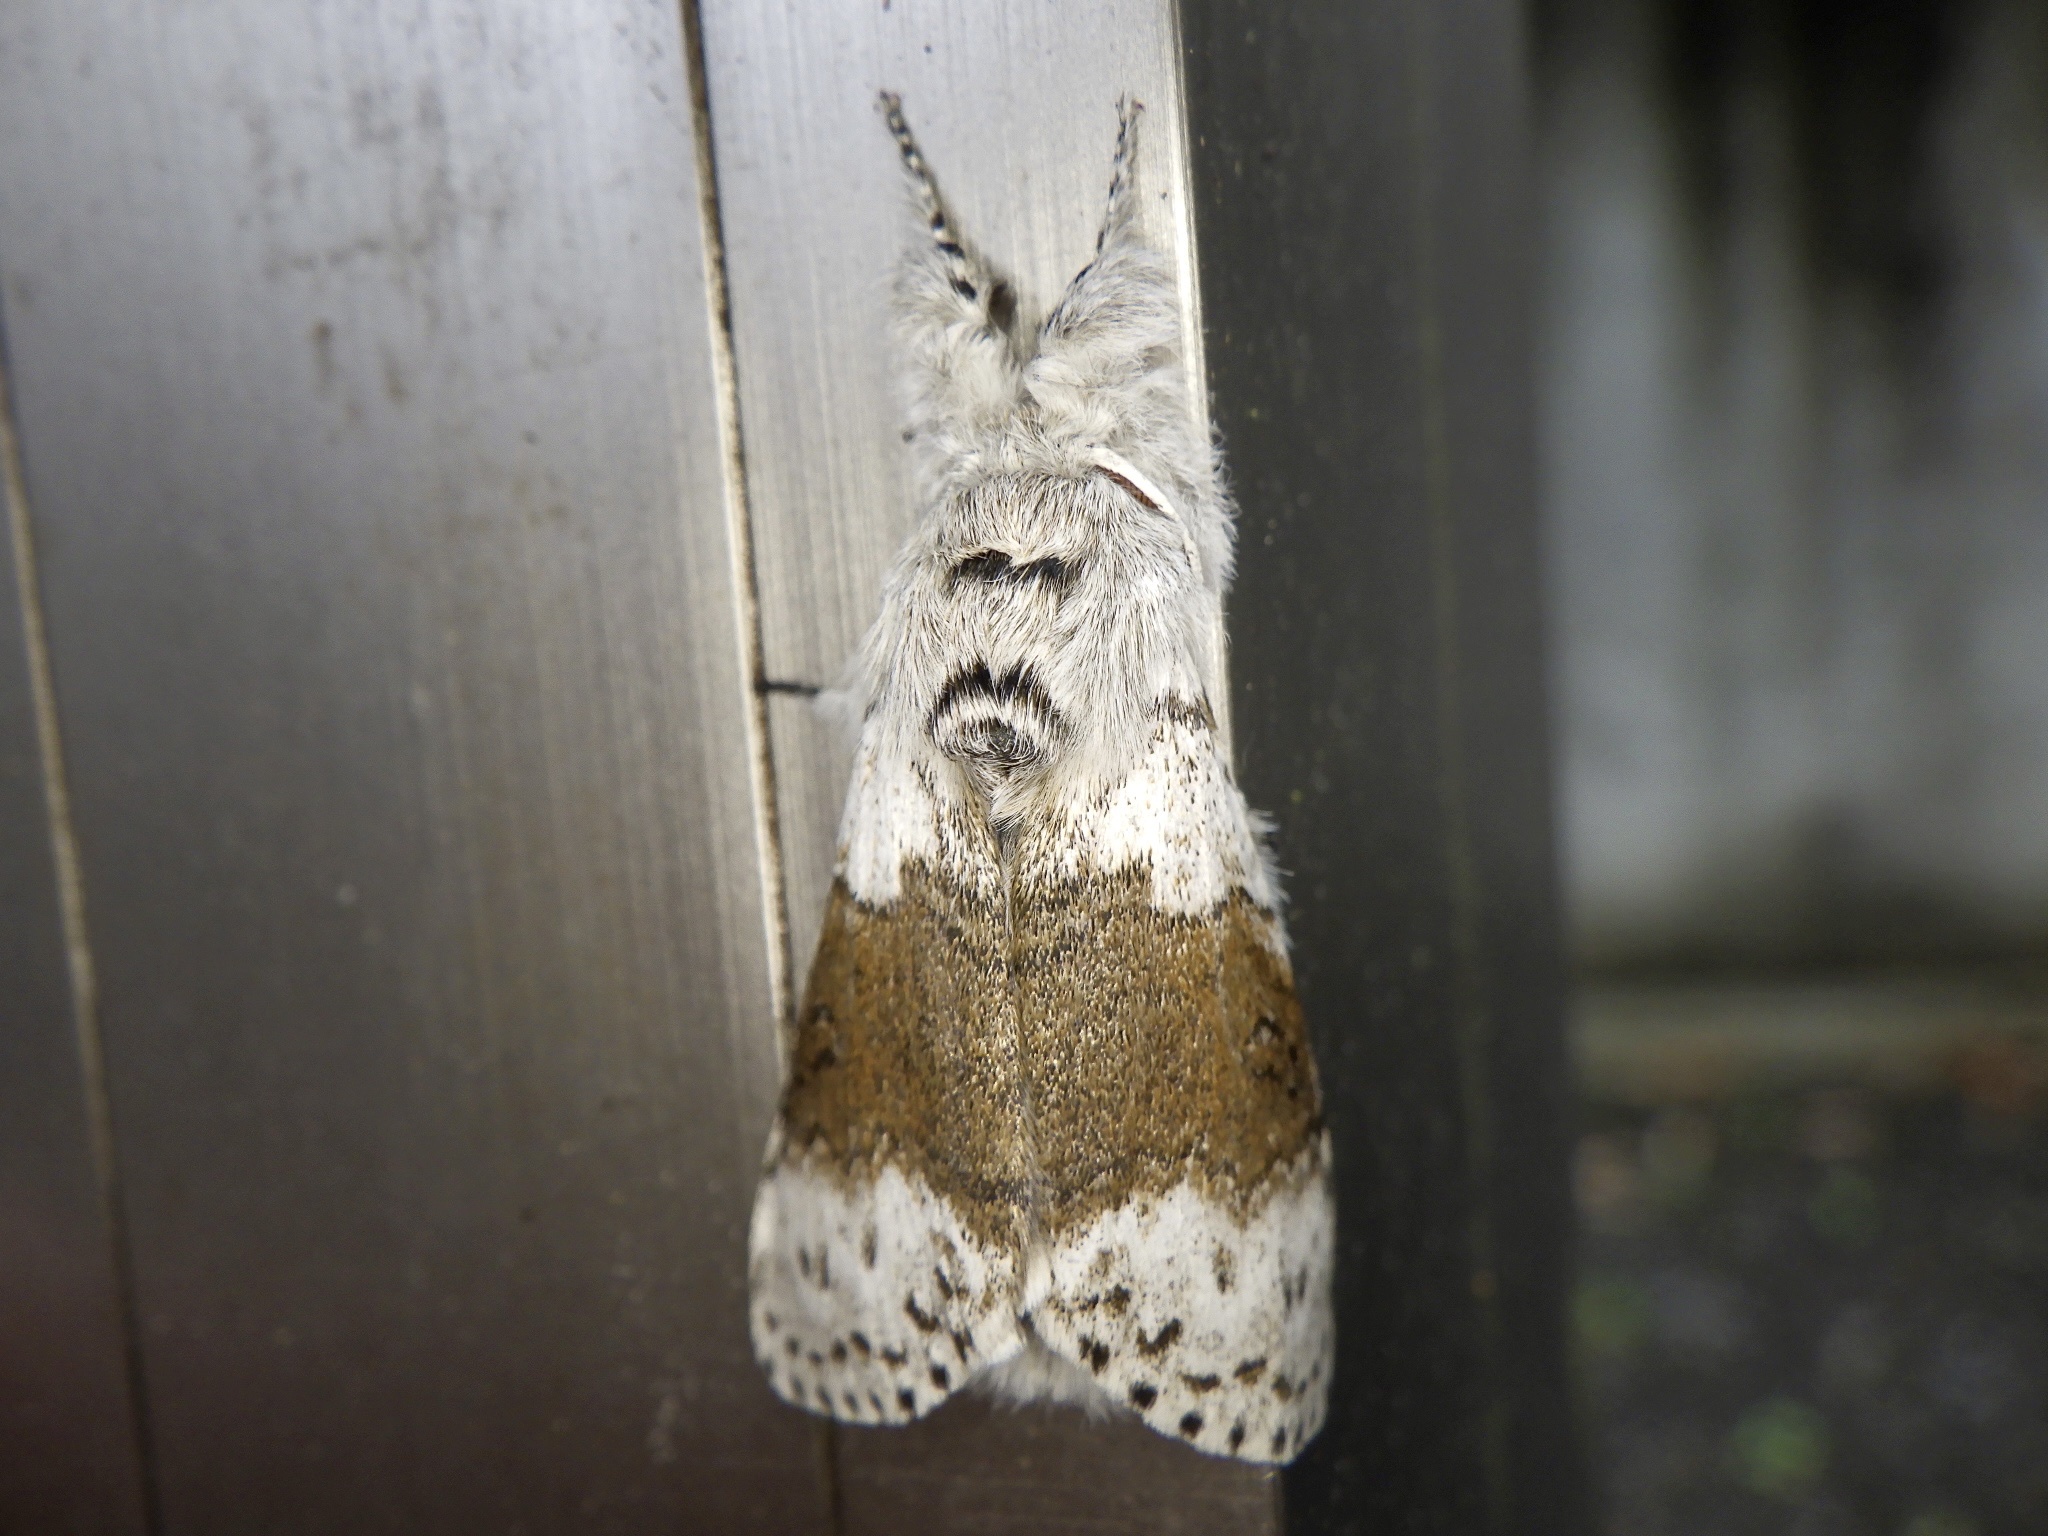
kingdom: Animalia
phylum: Arthropoda
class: Insecta
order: Lepidoptera
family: Erebidae
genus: Calliteara
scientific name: Calliteara
